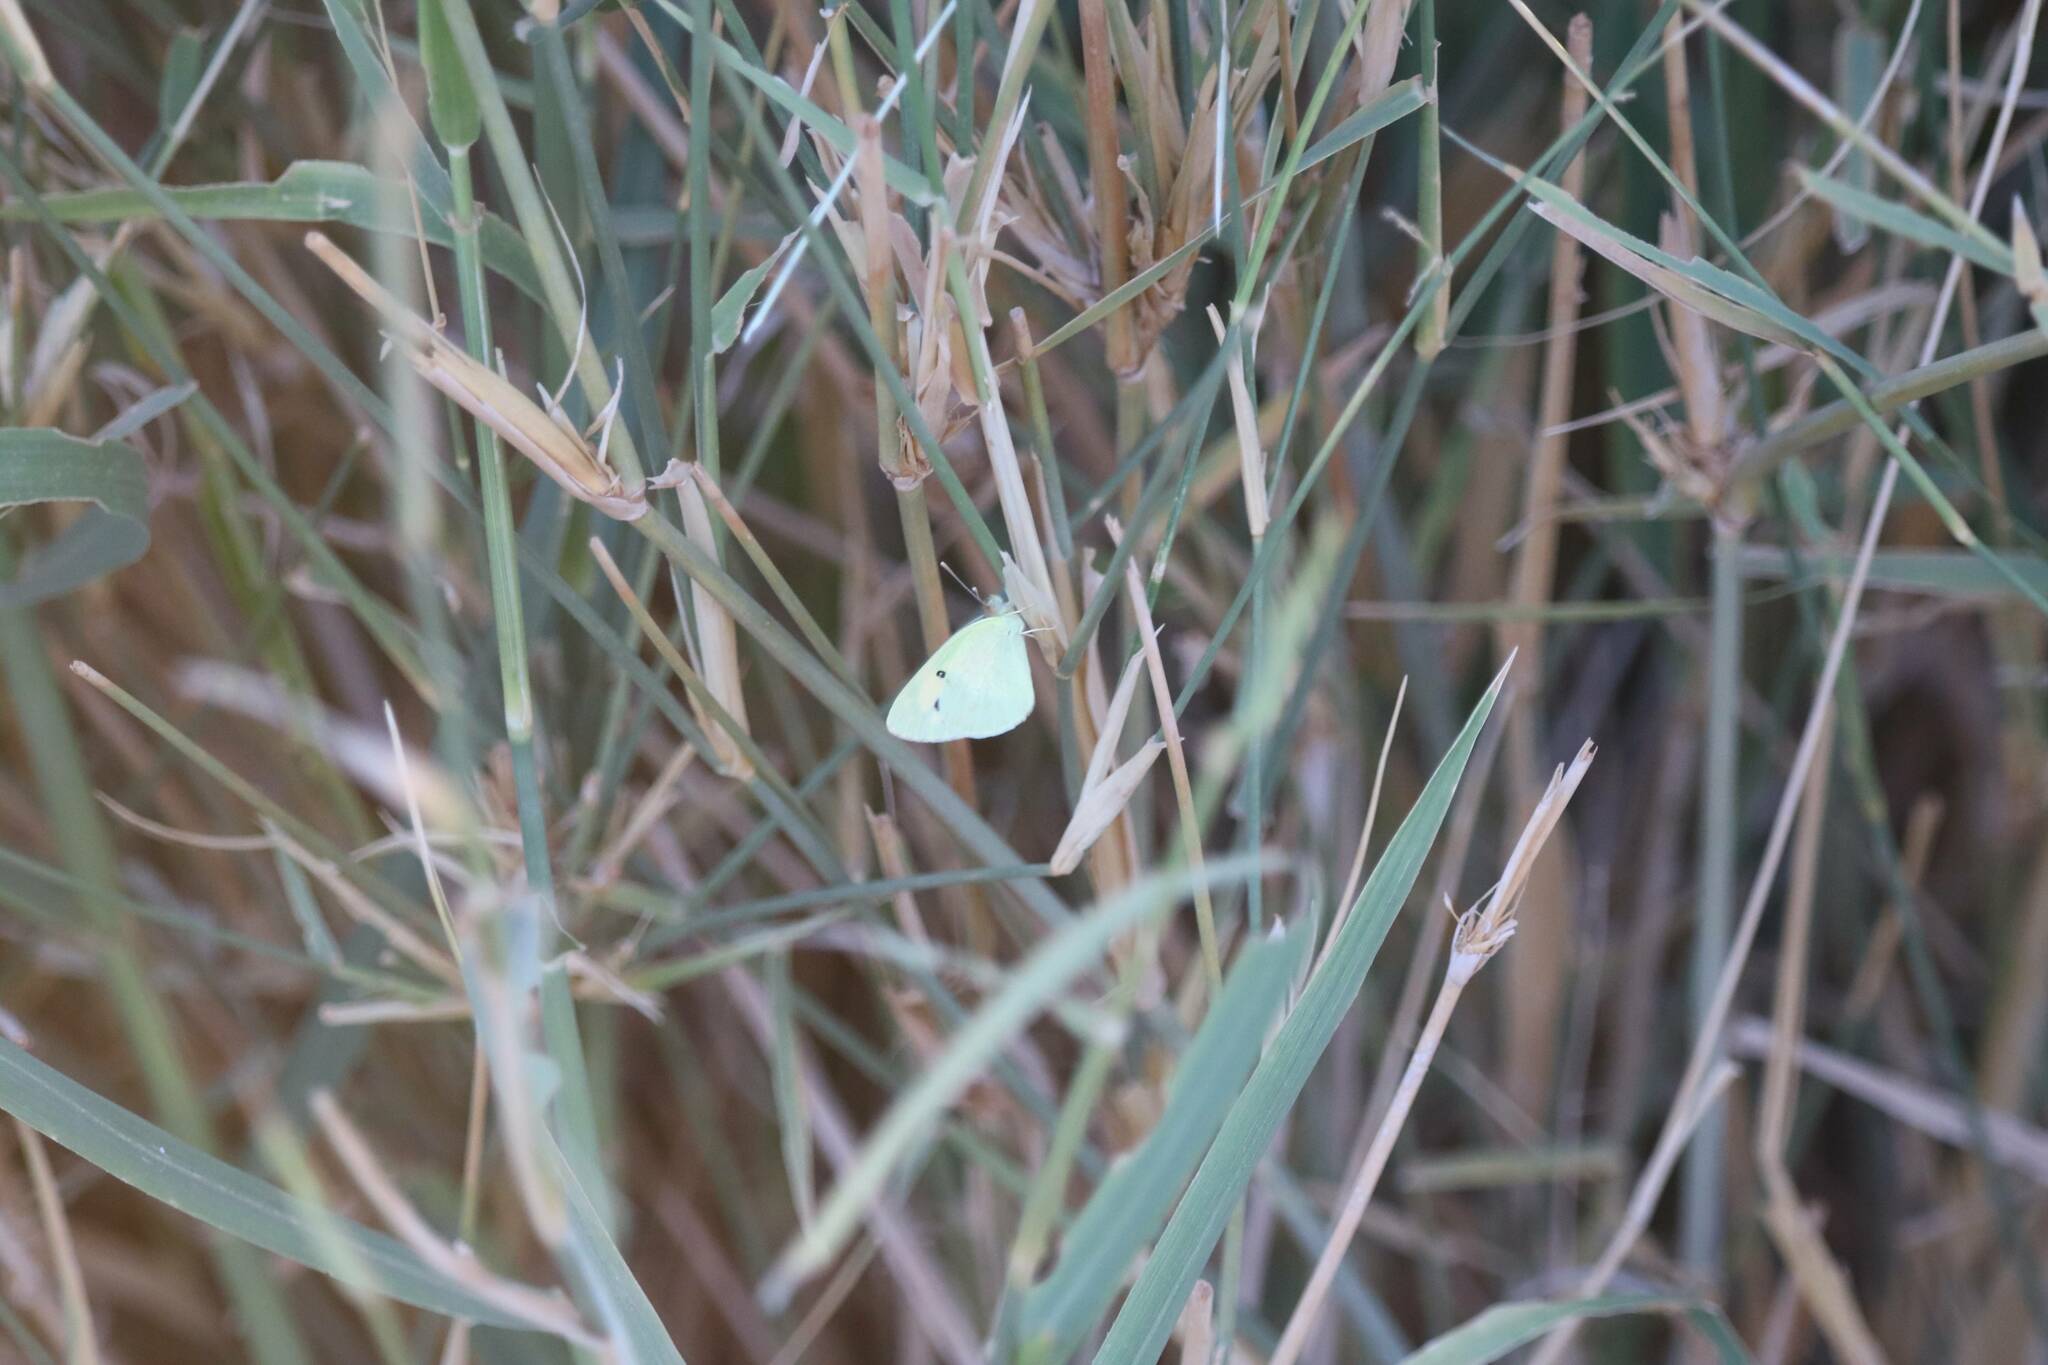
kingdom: Animalia
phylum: Arthropoda
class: Insecta
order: Lepidoptera
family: Pieridae
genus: Colotis
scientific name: Colotis phisadia
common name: Blue spotted arab
